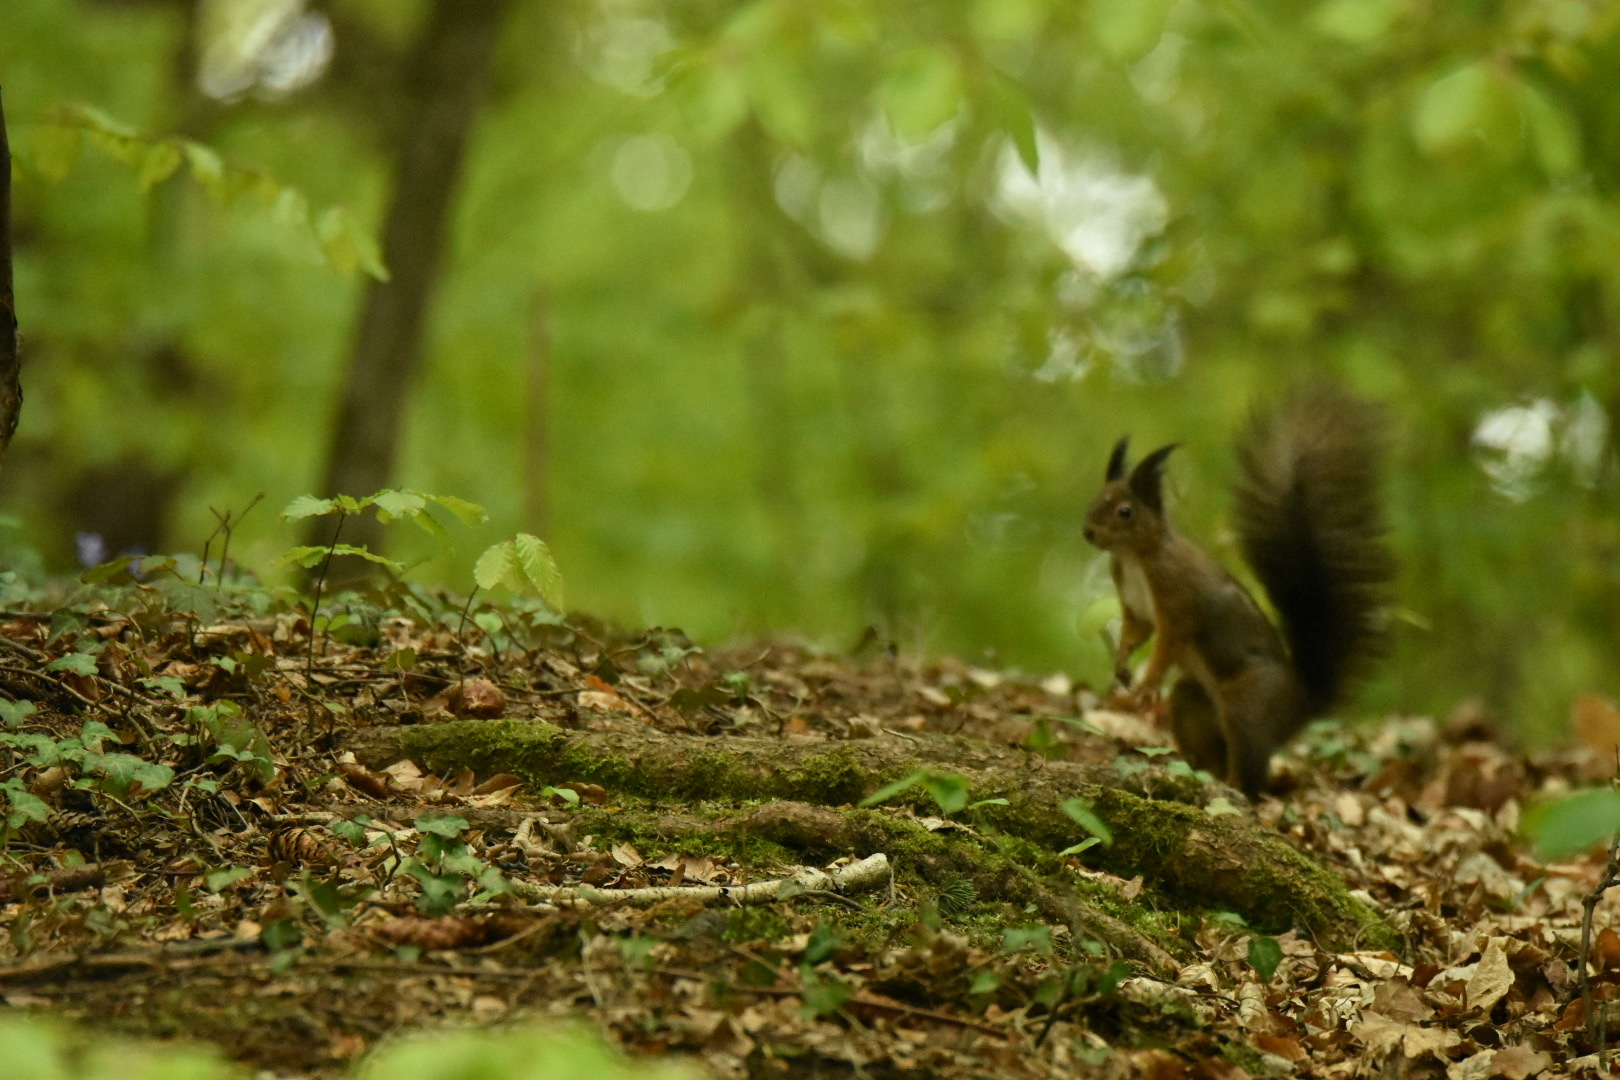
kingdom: Animalia
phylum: Chordata
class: Mammalia
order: Rodentia
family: Sciuridae
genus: Sciurus
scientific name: Sciurus vulgaris
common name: Eurasian red squirrel
